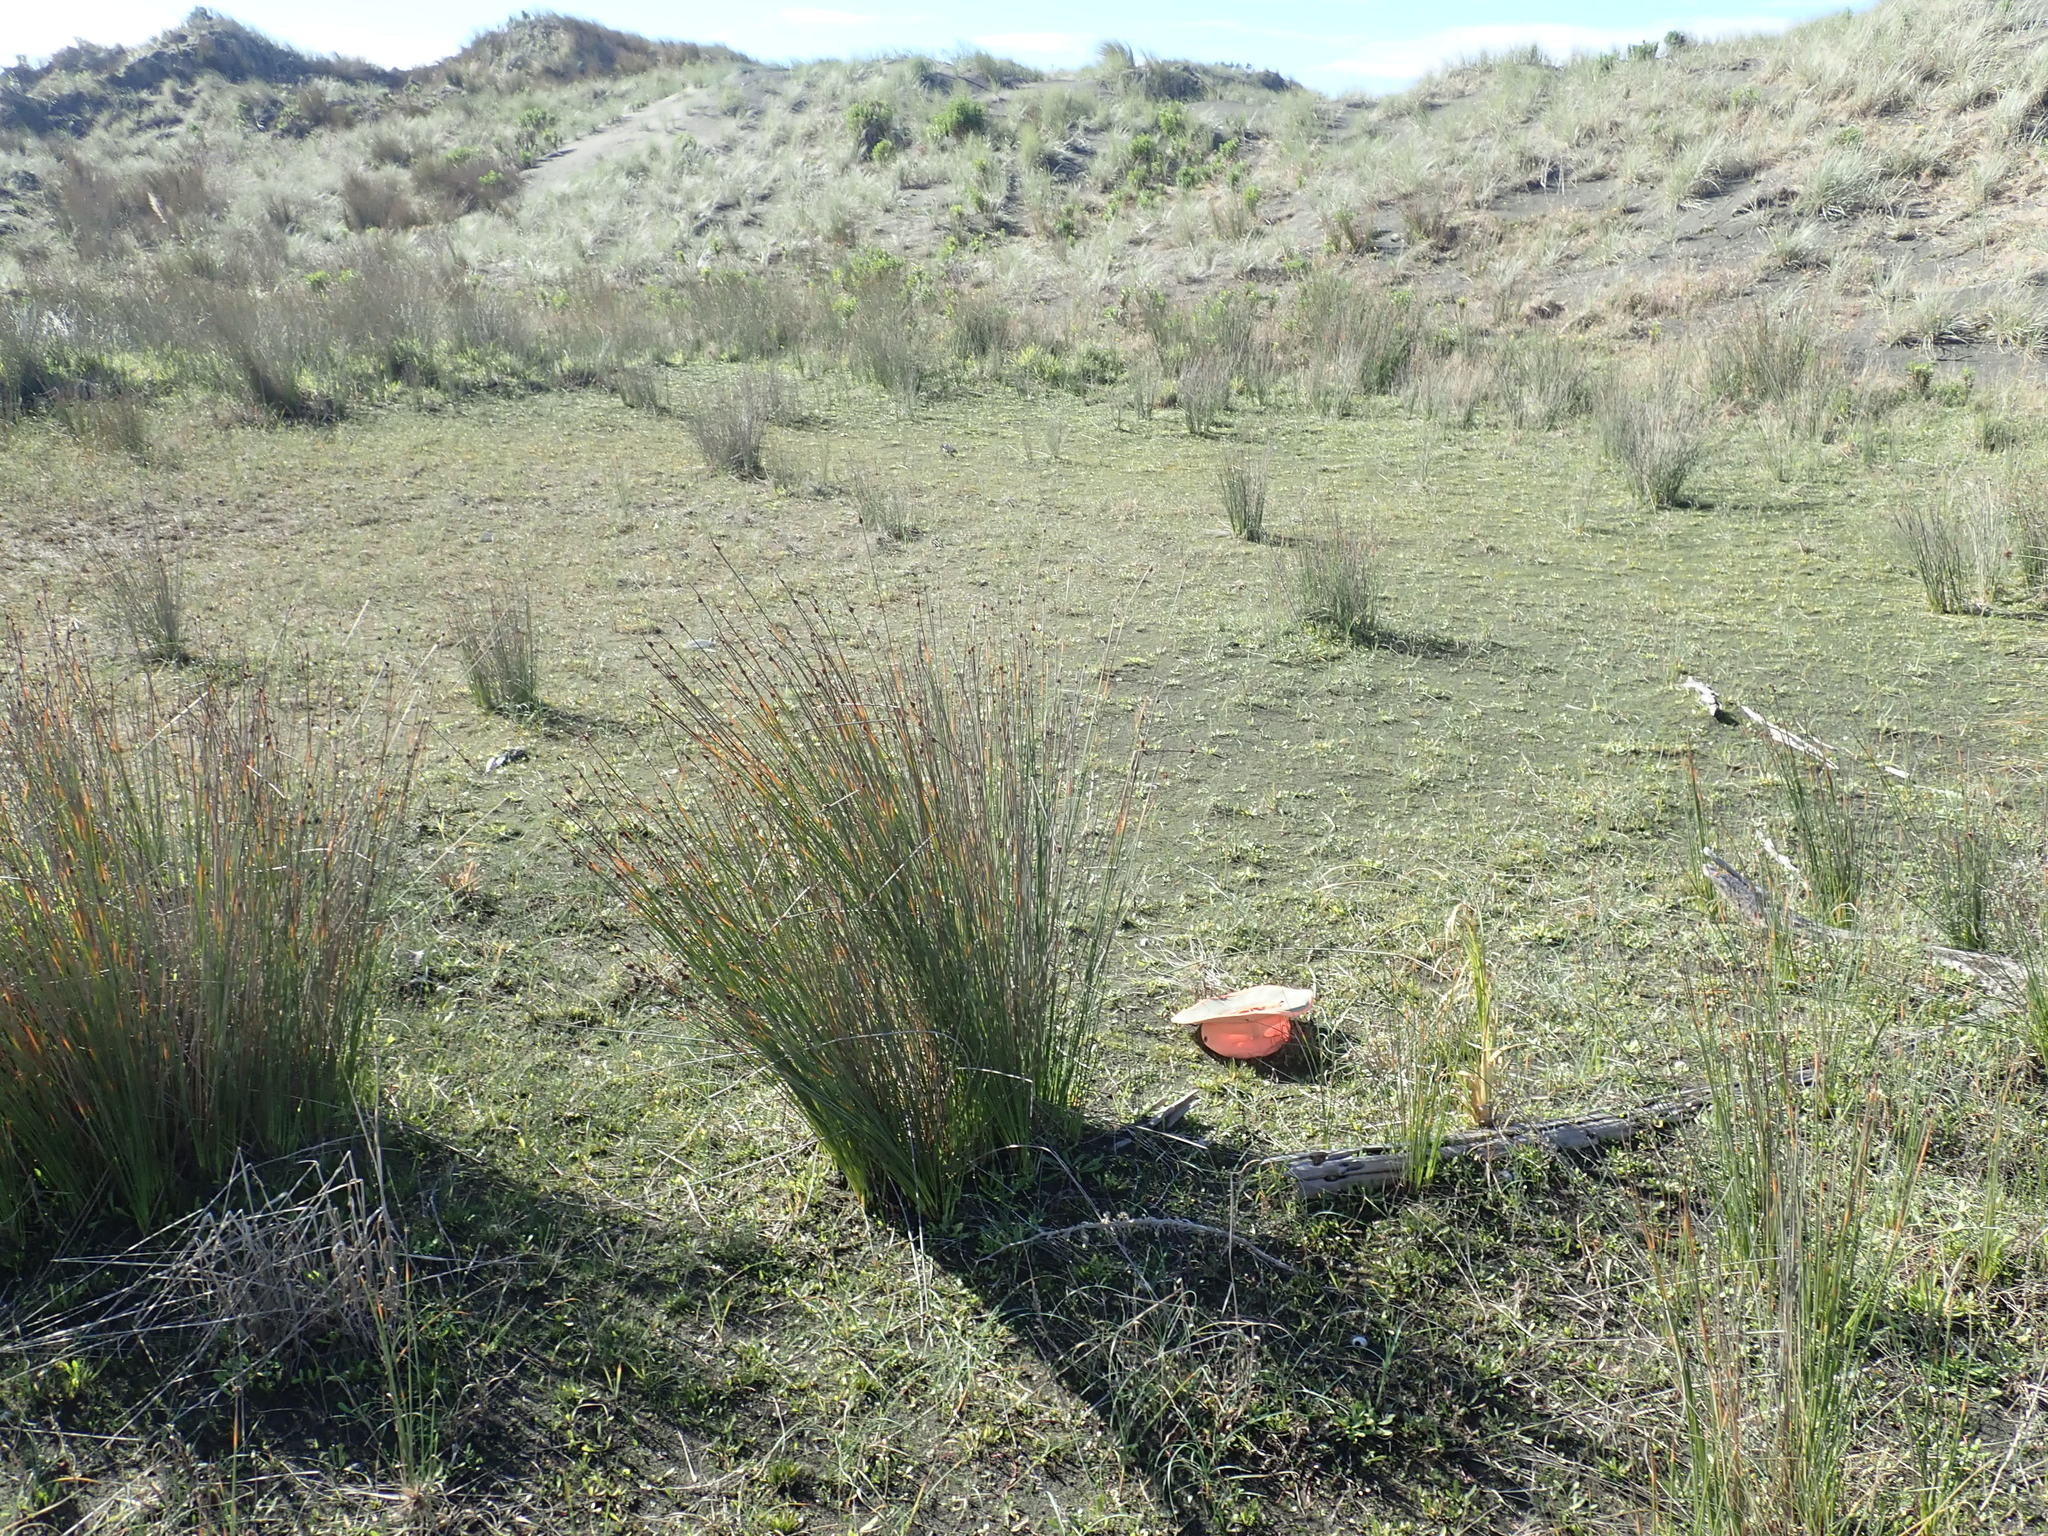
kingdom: Plantae
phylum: Tracheophyta
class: Liliopsida
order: Poales
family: Cyperaceae
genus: Isolepis
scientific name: Isolepis cernua
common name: Slender club-rush
